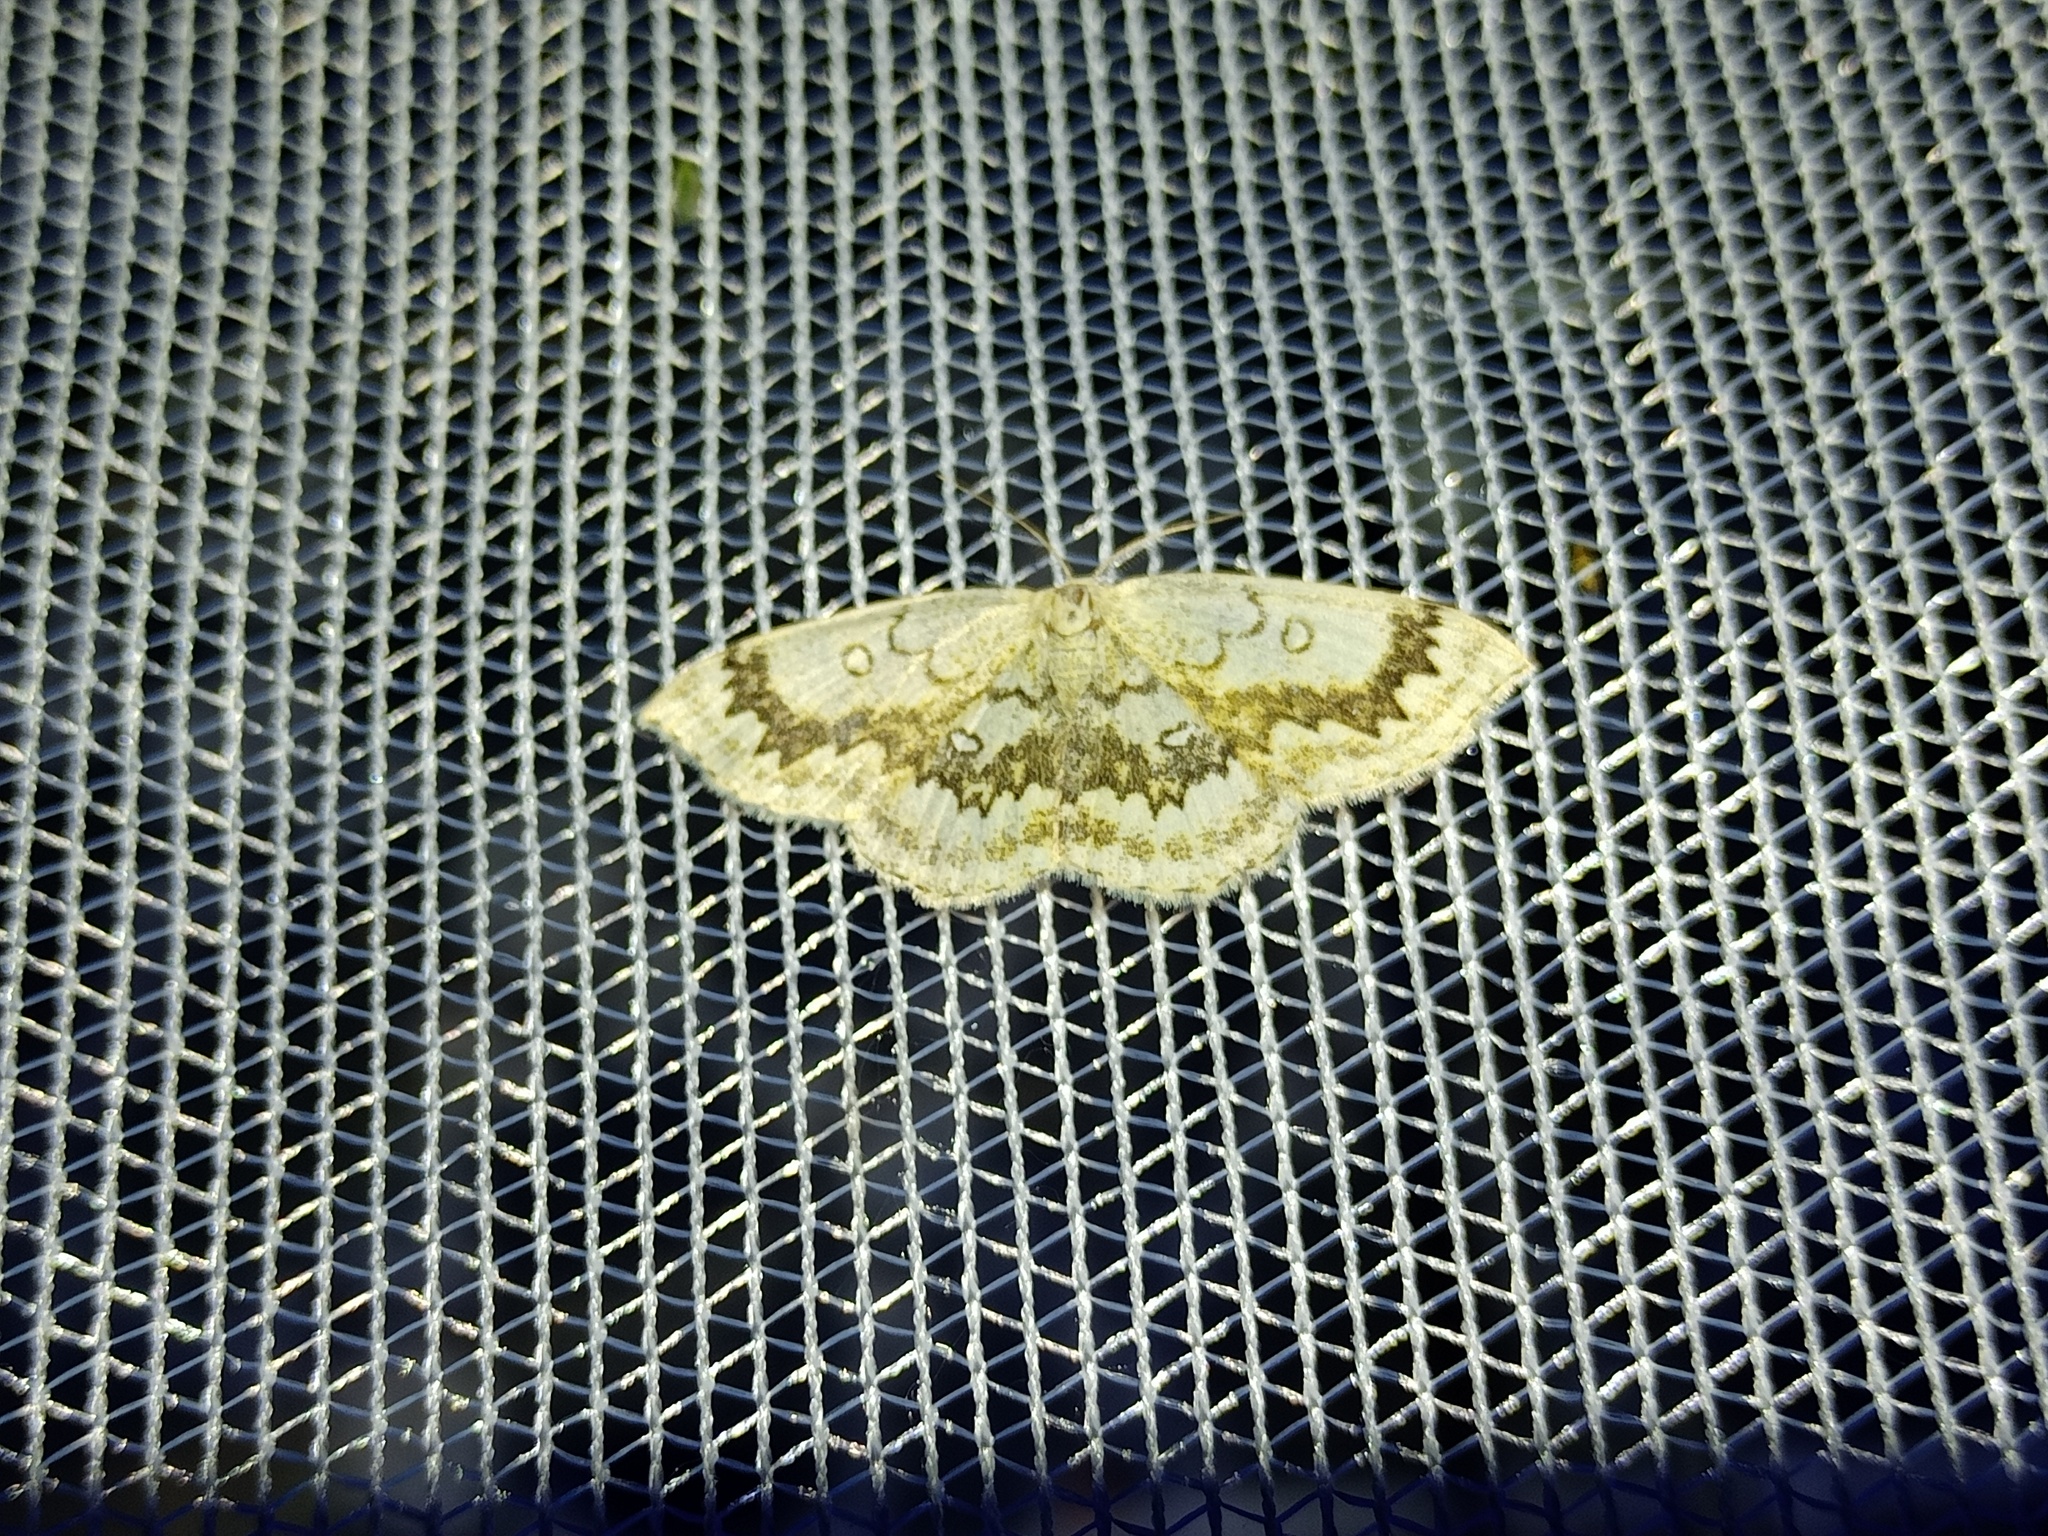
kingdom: Animalia
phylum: Arthropoda
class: Insecta
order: Lepidoptera
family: Geometridae
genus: Cyclophora
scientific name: Cyclophora annularia
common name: Mocha
